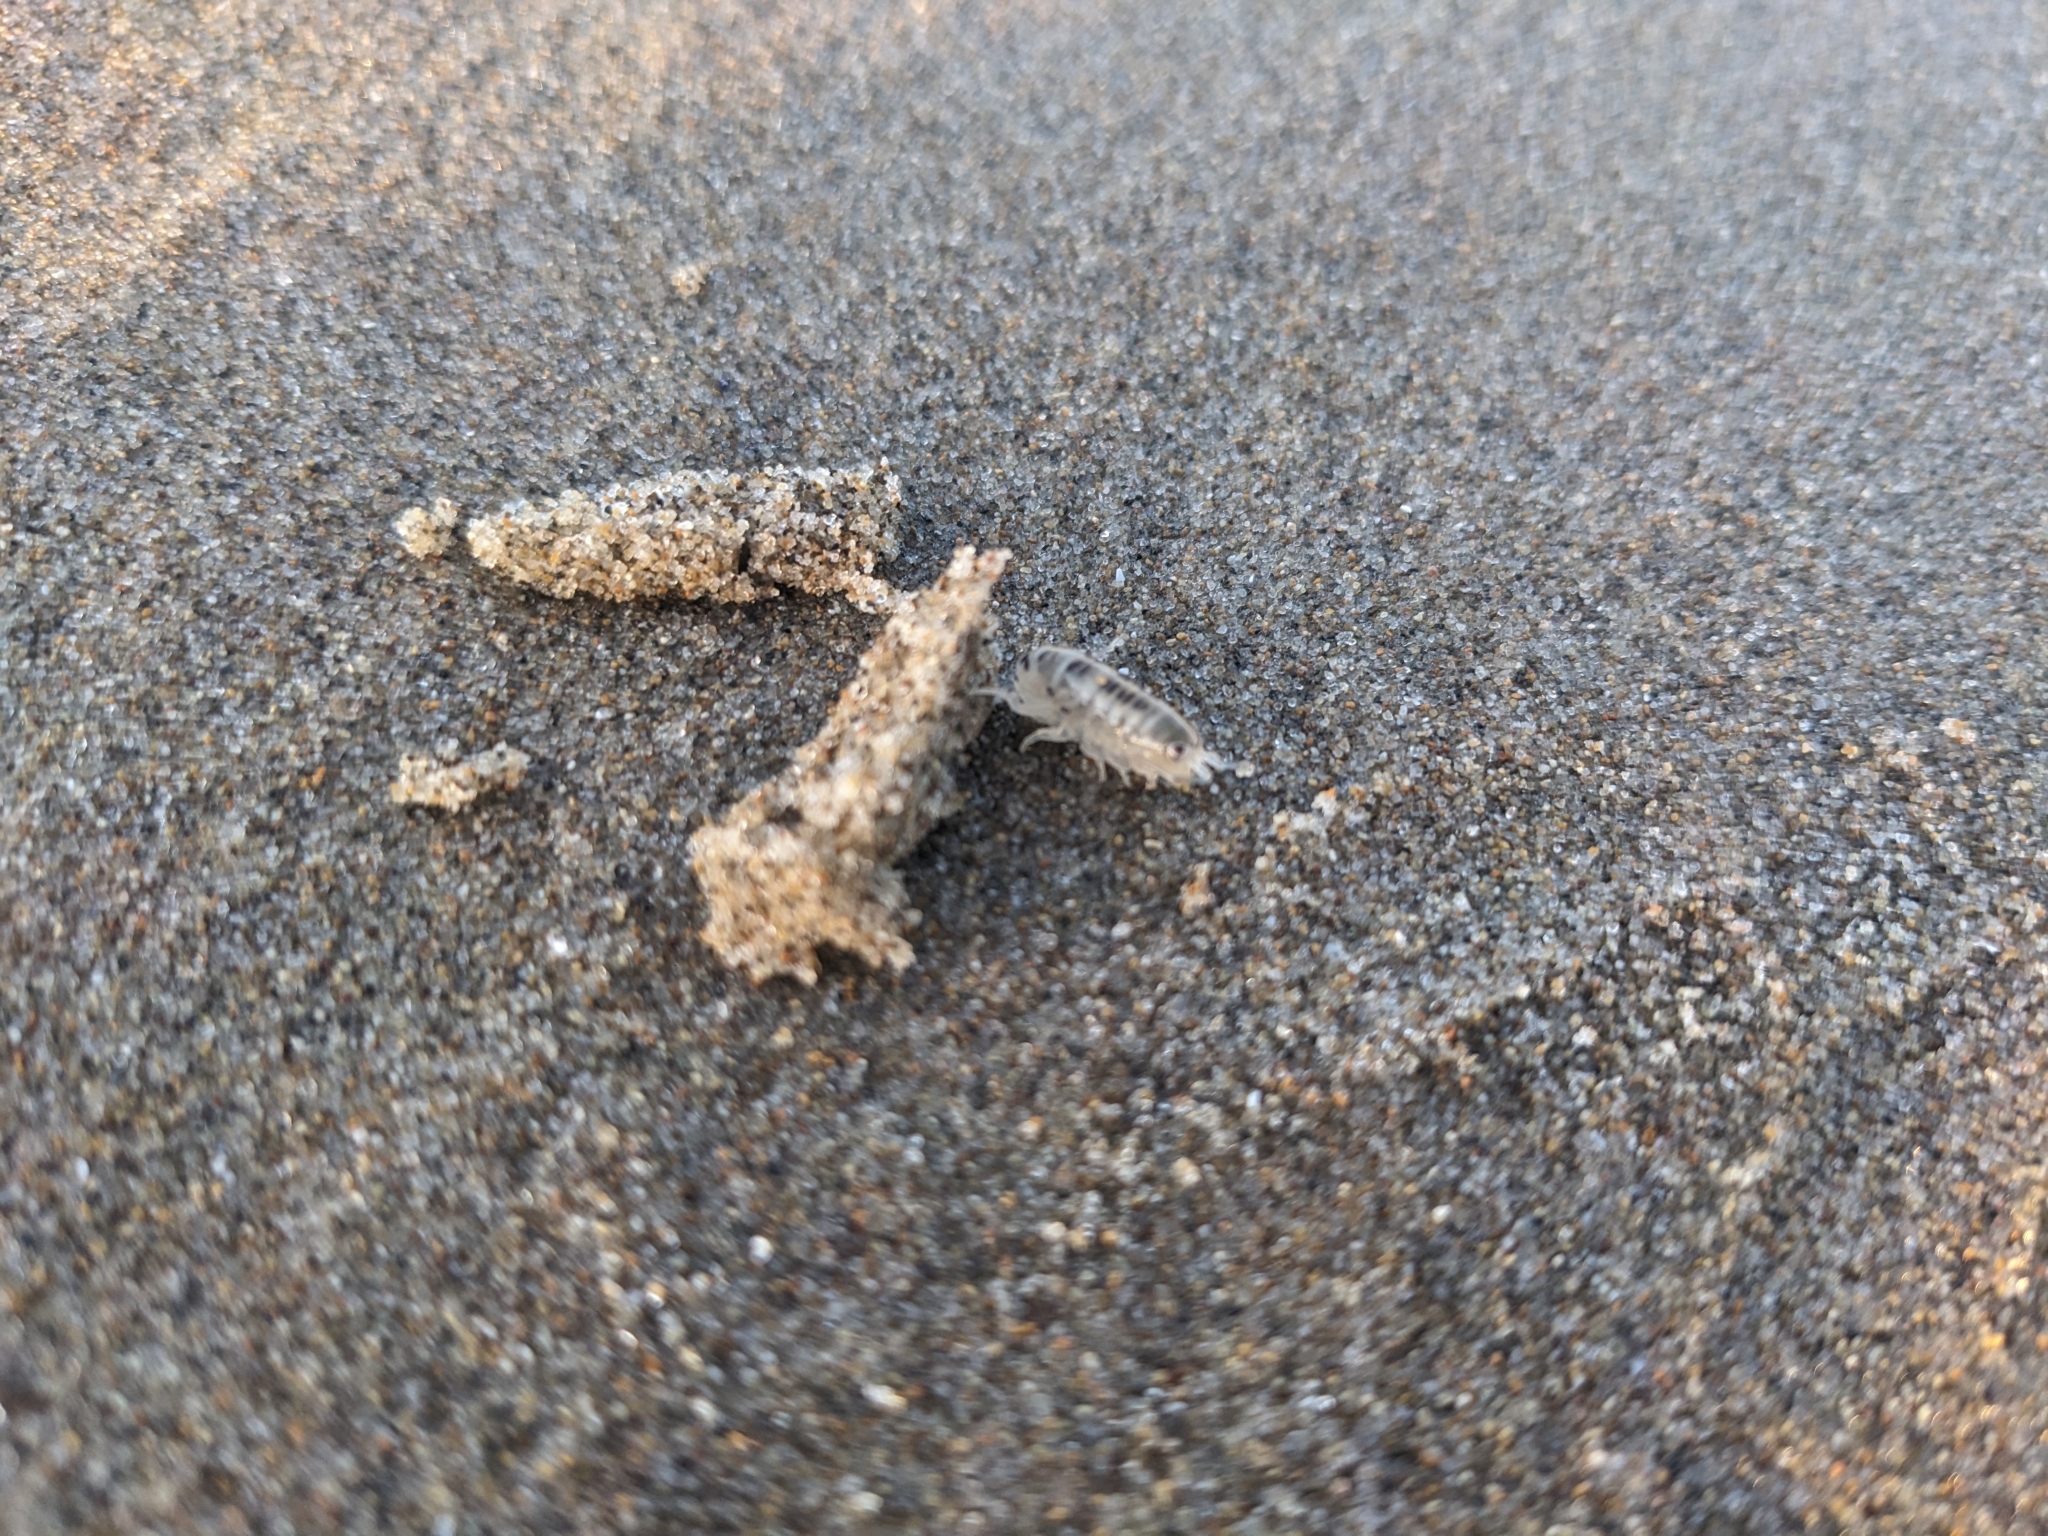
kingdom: Animalia
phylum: Arthropoda
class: Malacostraca
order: Amphipoda
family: Talitridae
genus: Megalorchestia
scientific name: Megalorchestia columbiana
